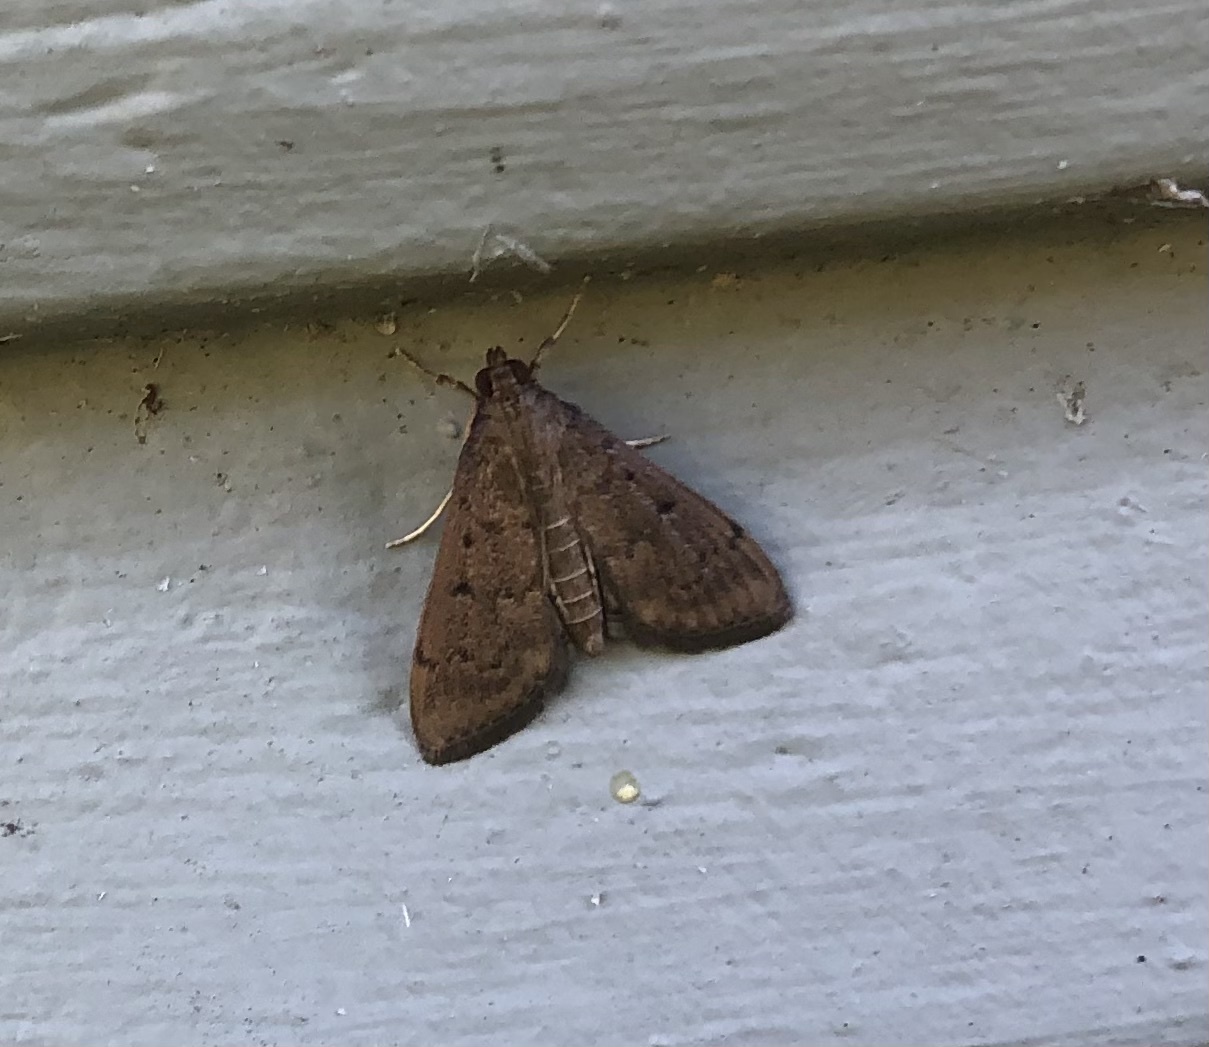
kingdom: Animalia
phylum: Arthropoda
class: Insecta
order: Lepidoptera
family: Crambidae
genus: Herpetogramma
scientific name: Herpetogramma phaeopteralis
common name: Dusky herpetogramma moth
